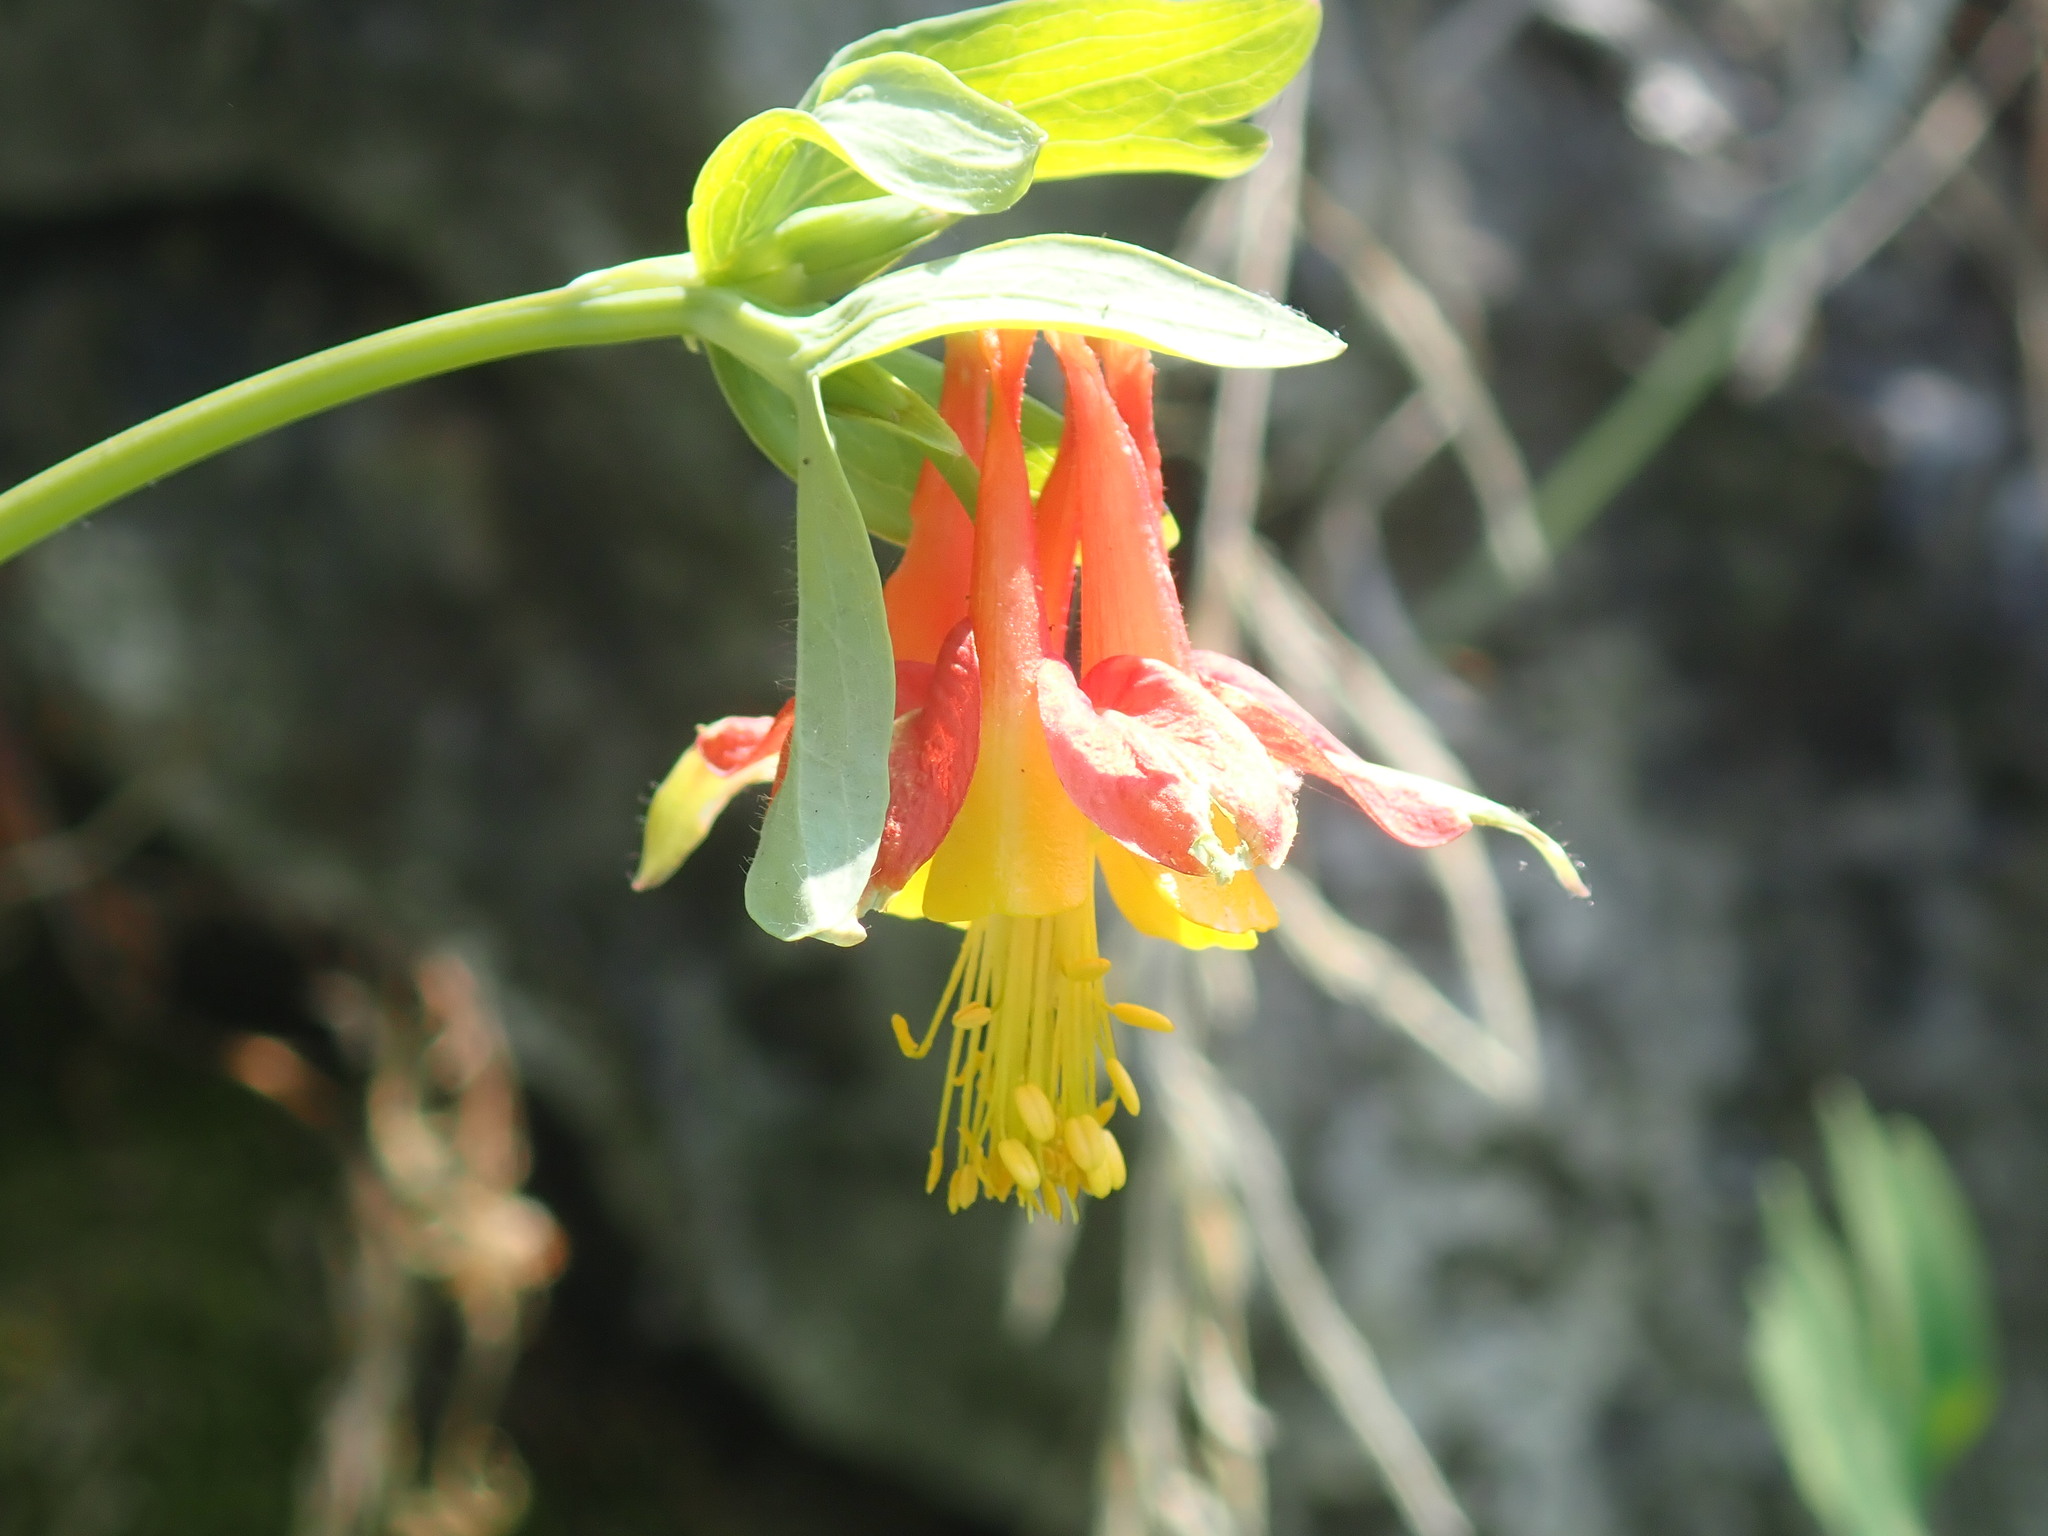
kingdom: Plantae
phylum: Tracheophyta
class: Magnoliopsida
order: Ranunculales
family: Ranunculaceae
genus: Aquilegia
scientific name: Aquilegia formosa
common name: Sitka columbine
